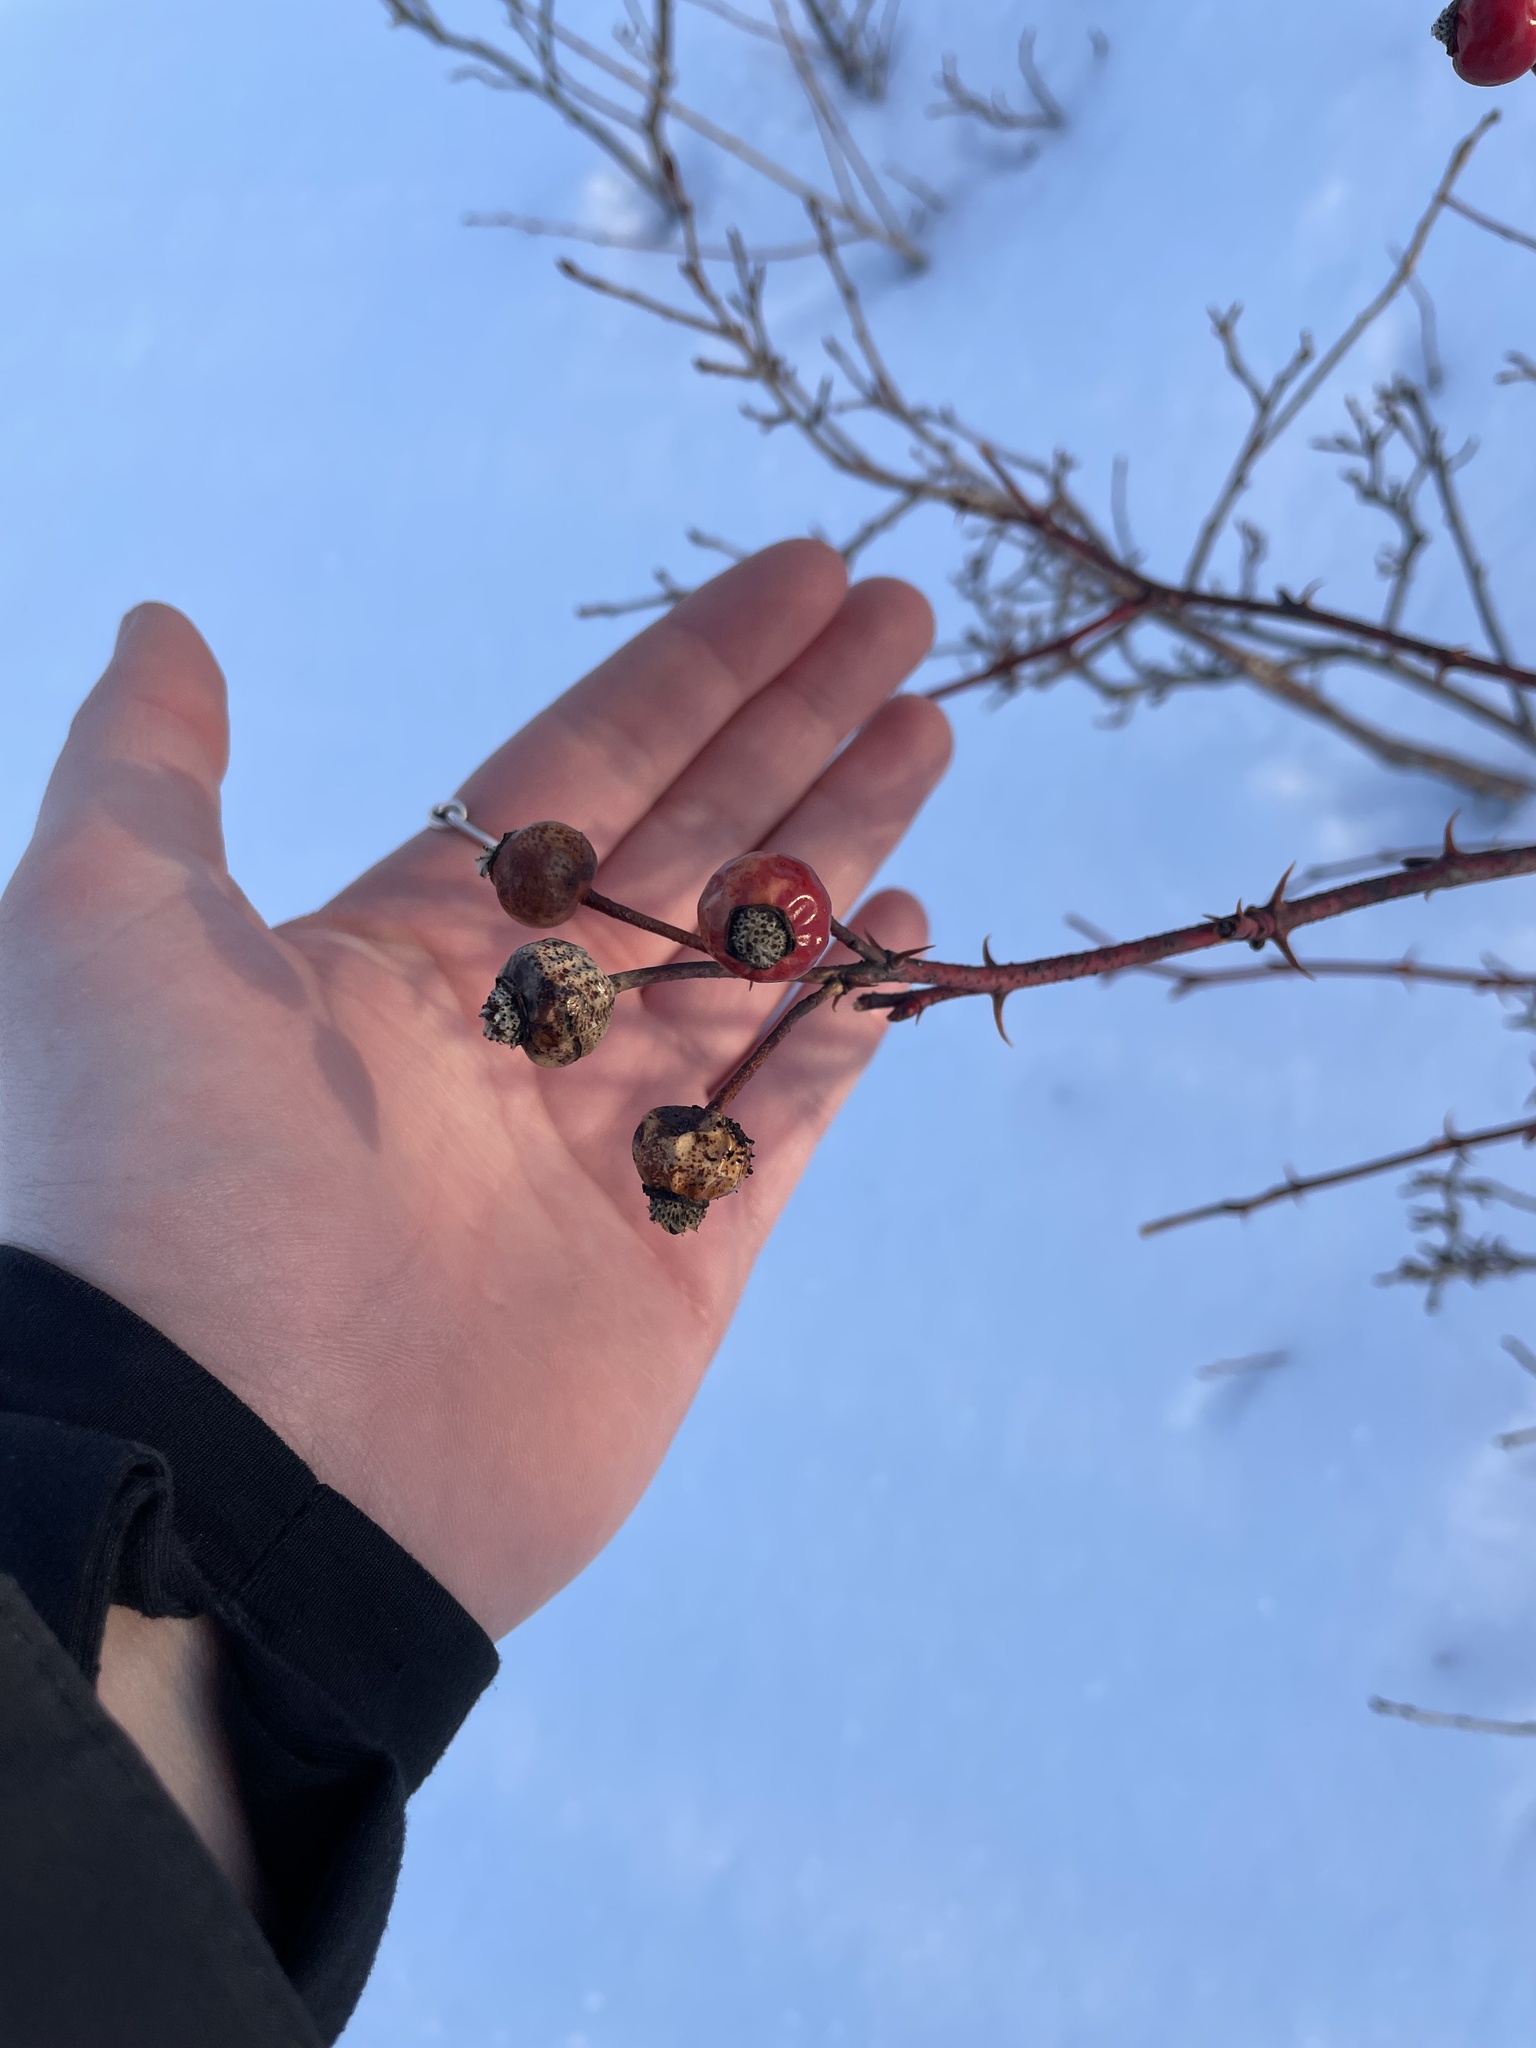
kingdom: Plantae
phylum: Tracheophyta
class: Magnoliopsida
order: Rosales
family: Rosaceae
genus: Rosa
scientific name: Rosa virginiana
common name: Virginian rose
